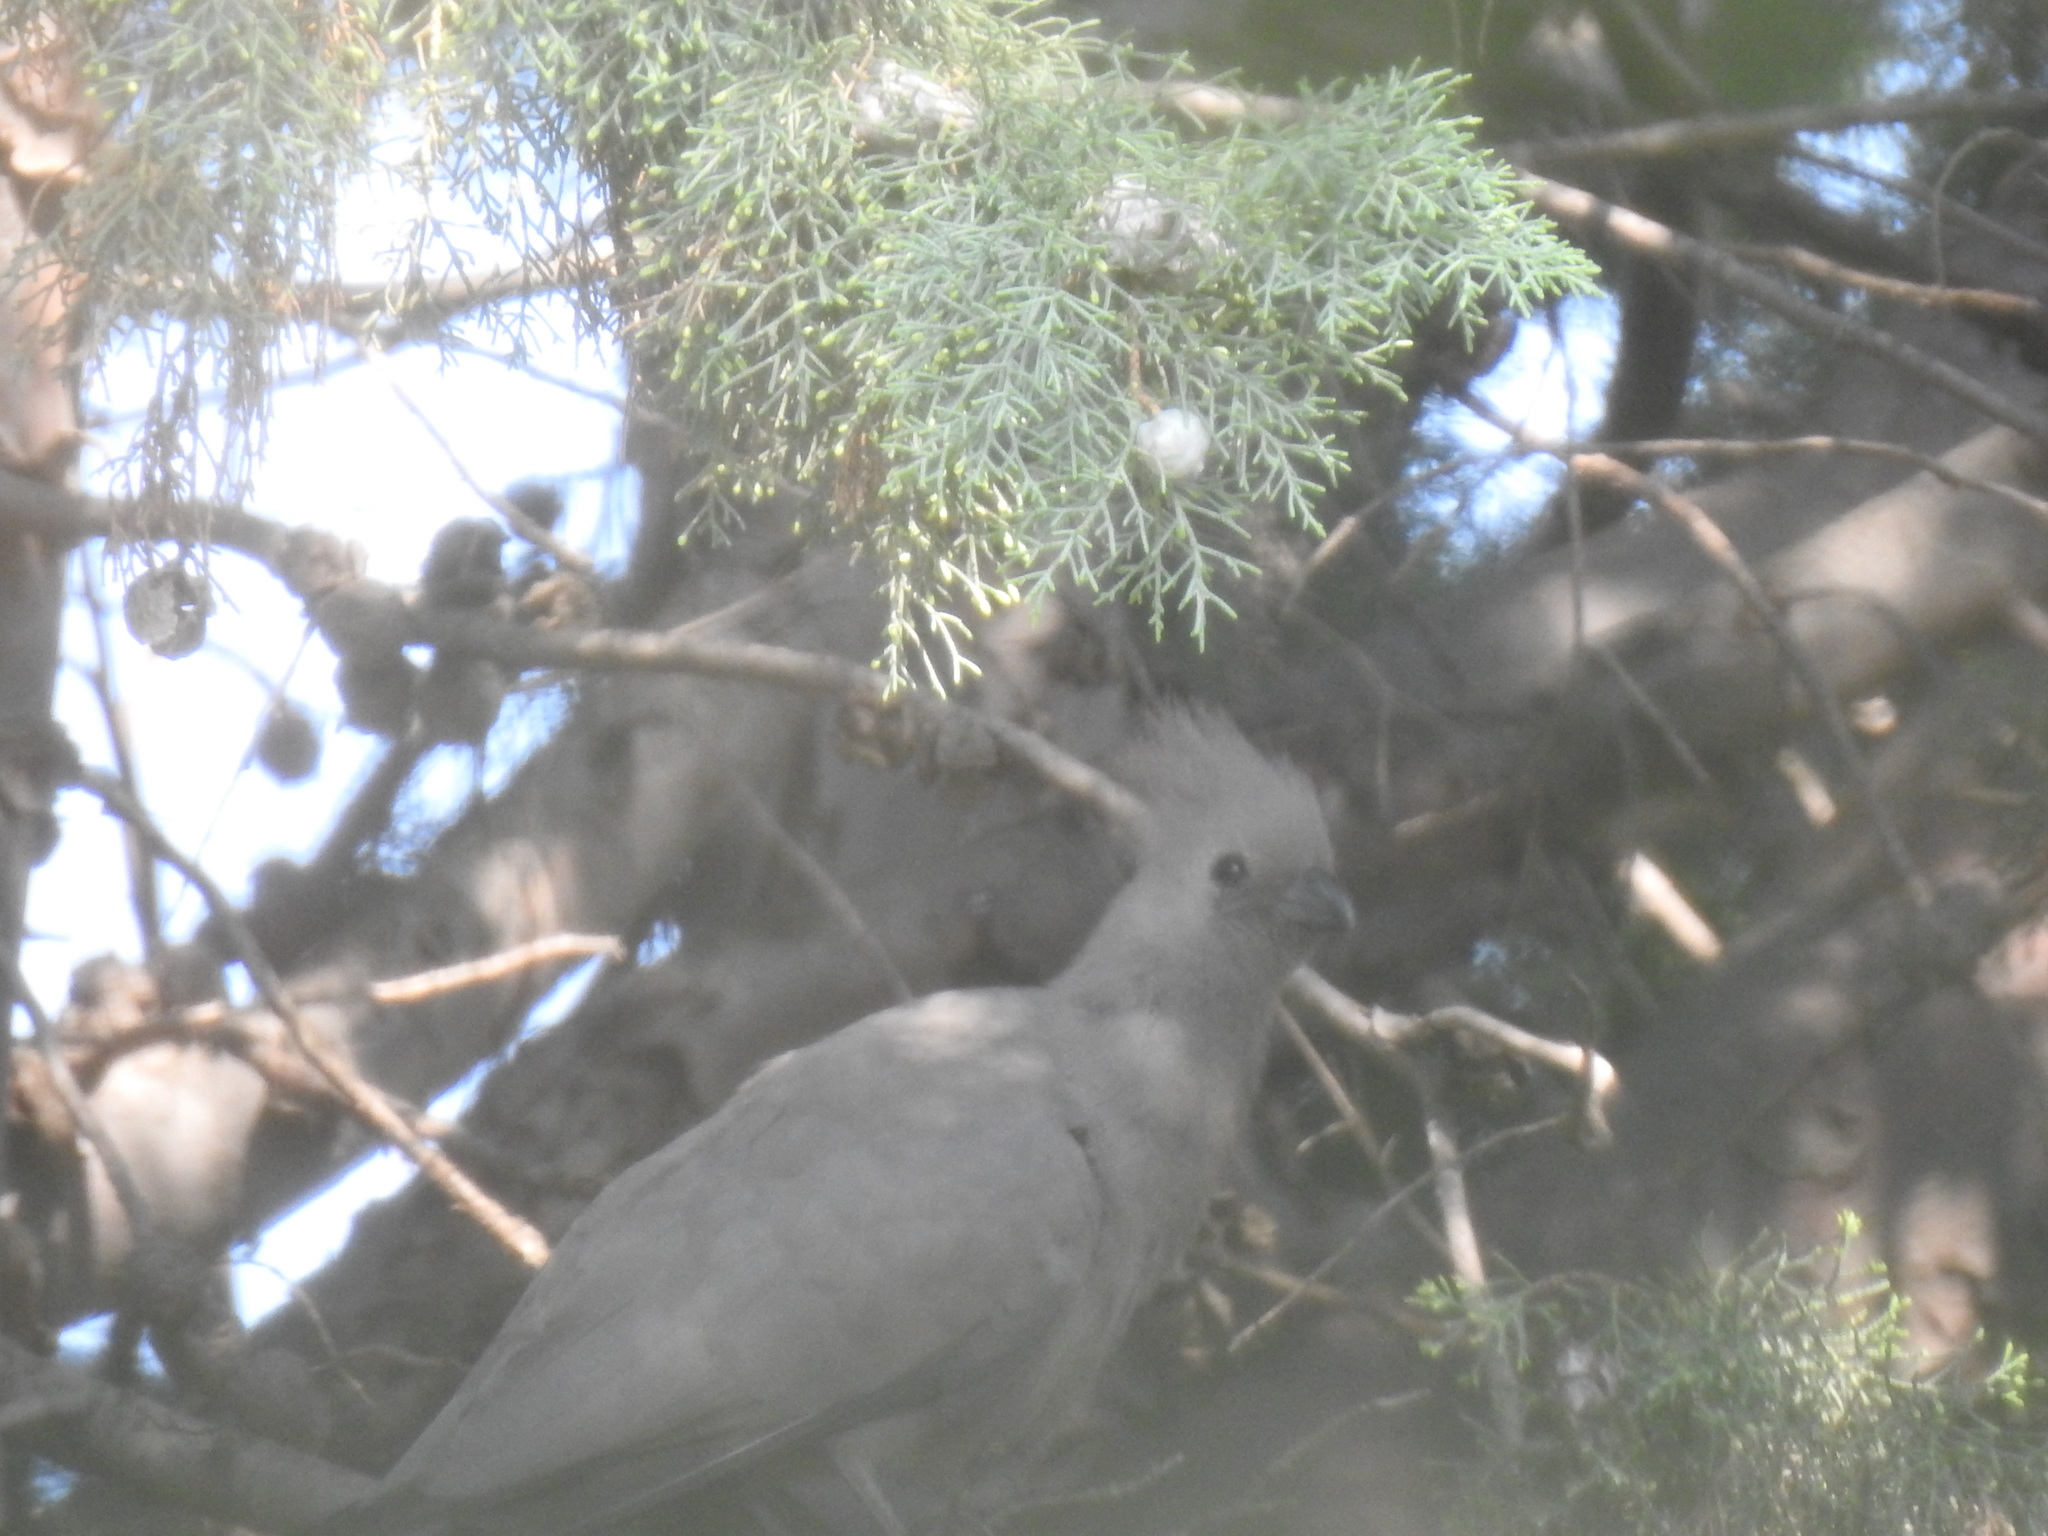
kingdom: Animalia
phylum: Chordata
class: Aves
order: Musophagiformes
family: Musophagidae
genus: Corythaixoides
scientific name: Corythaixoides concolor
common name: Grey go-away-bird
